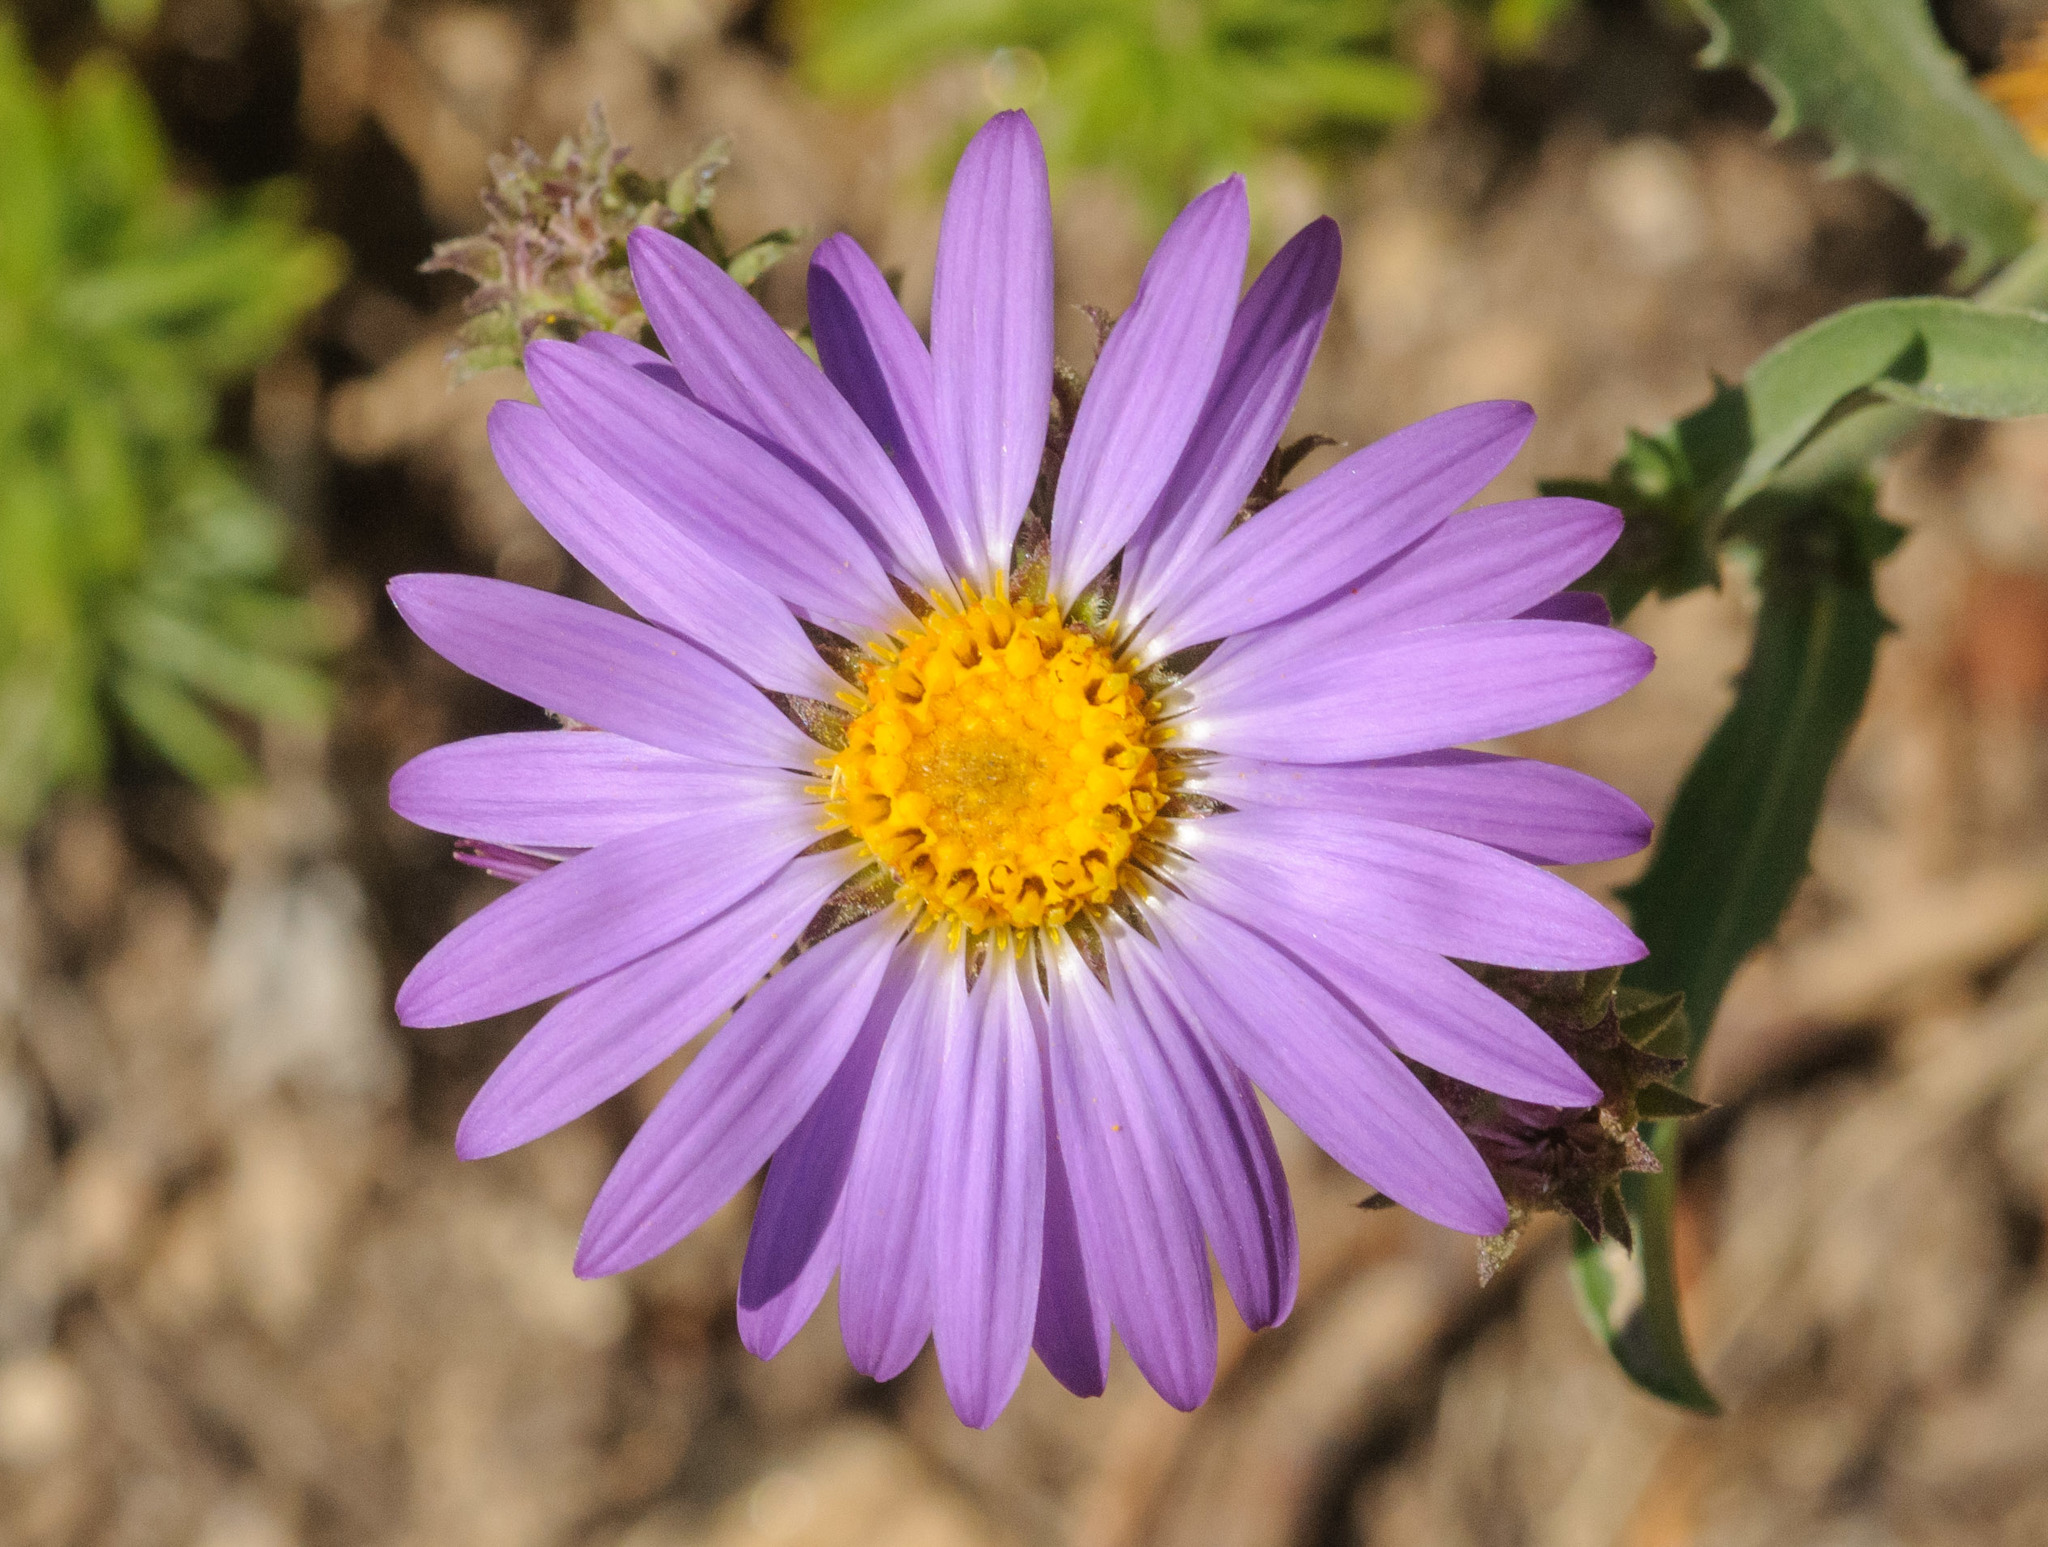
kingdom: Plantae
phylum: Tracheophyta
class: Magnoliopsida
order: Asterales
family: Asteraceae
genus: Dieteria
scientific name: Dieteria canescens
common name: Hoary-aster
